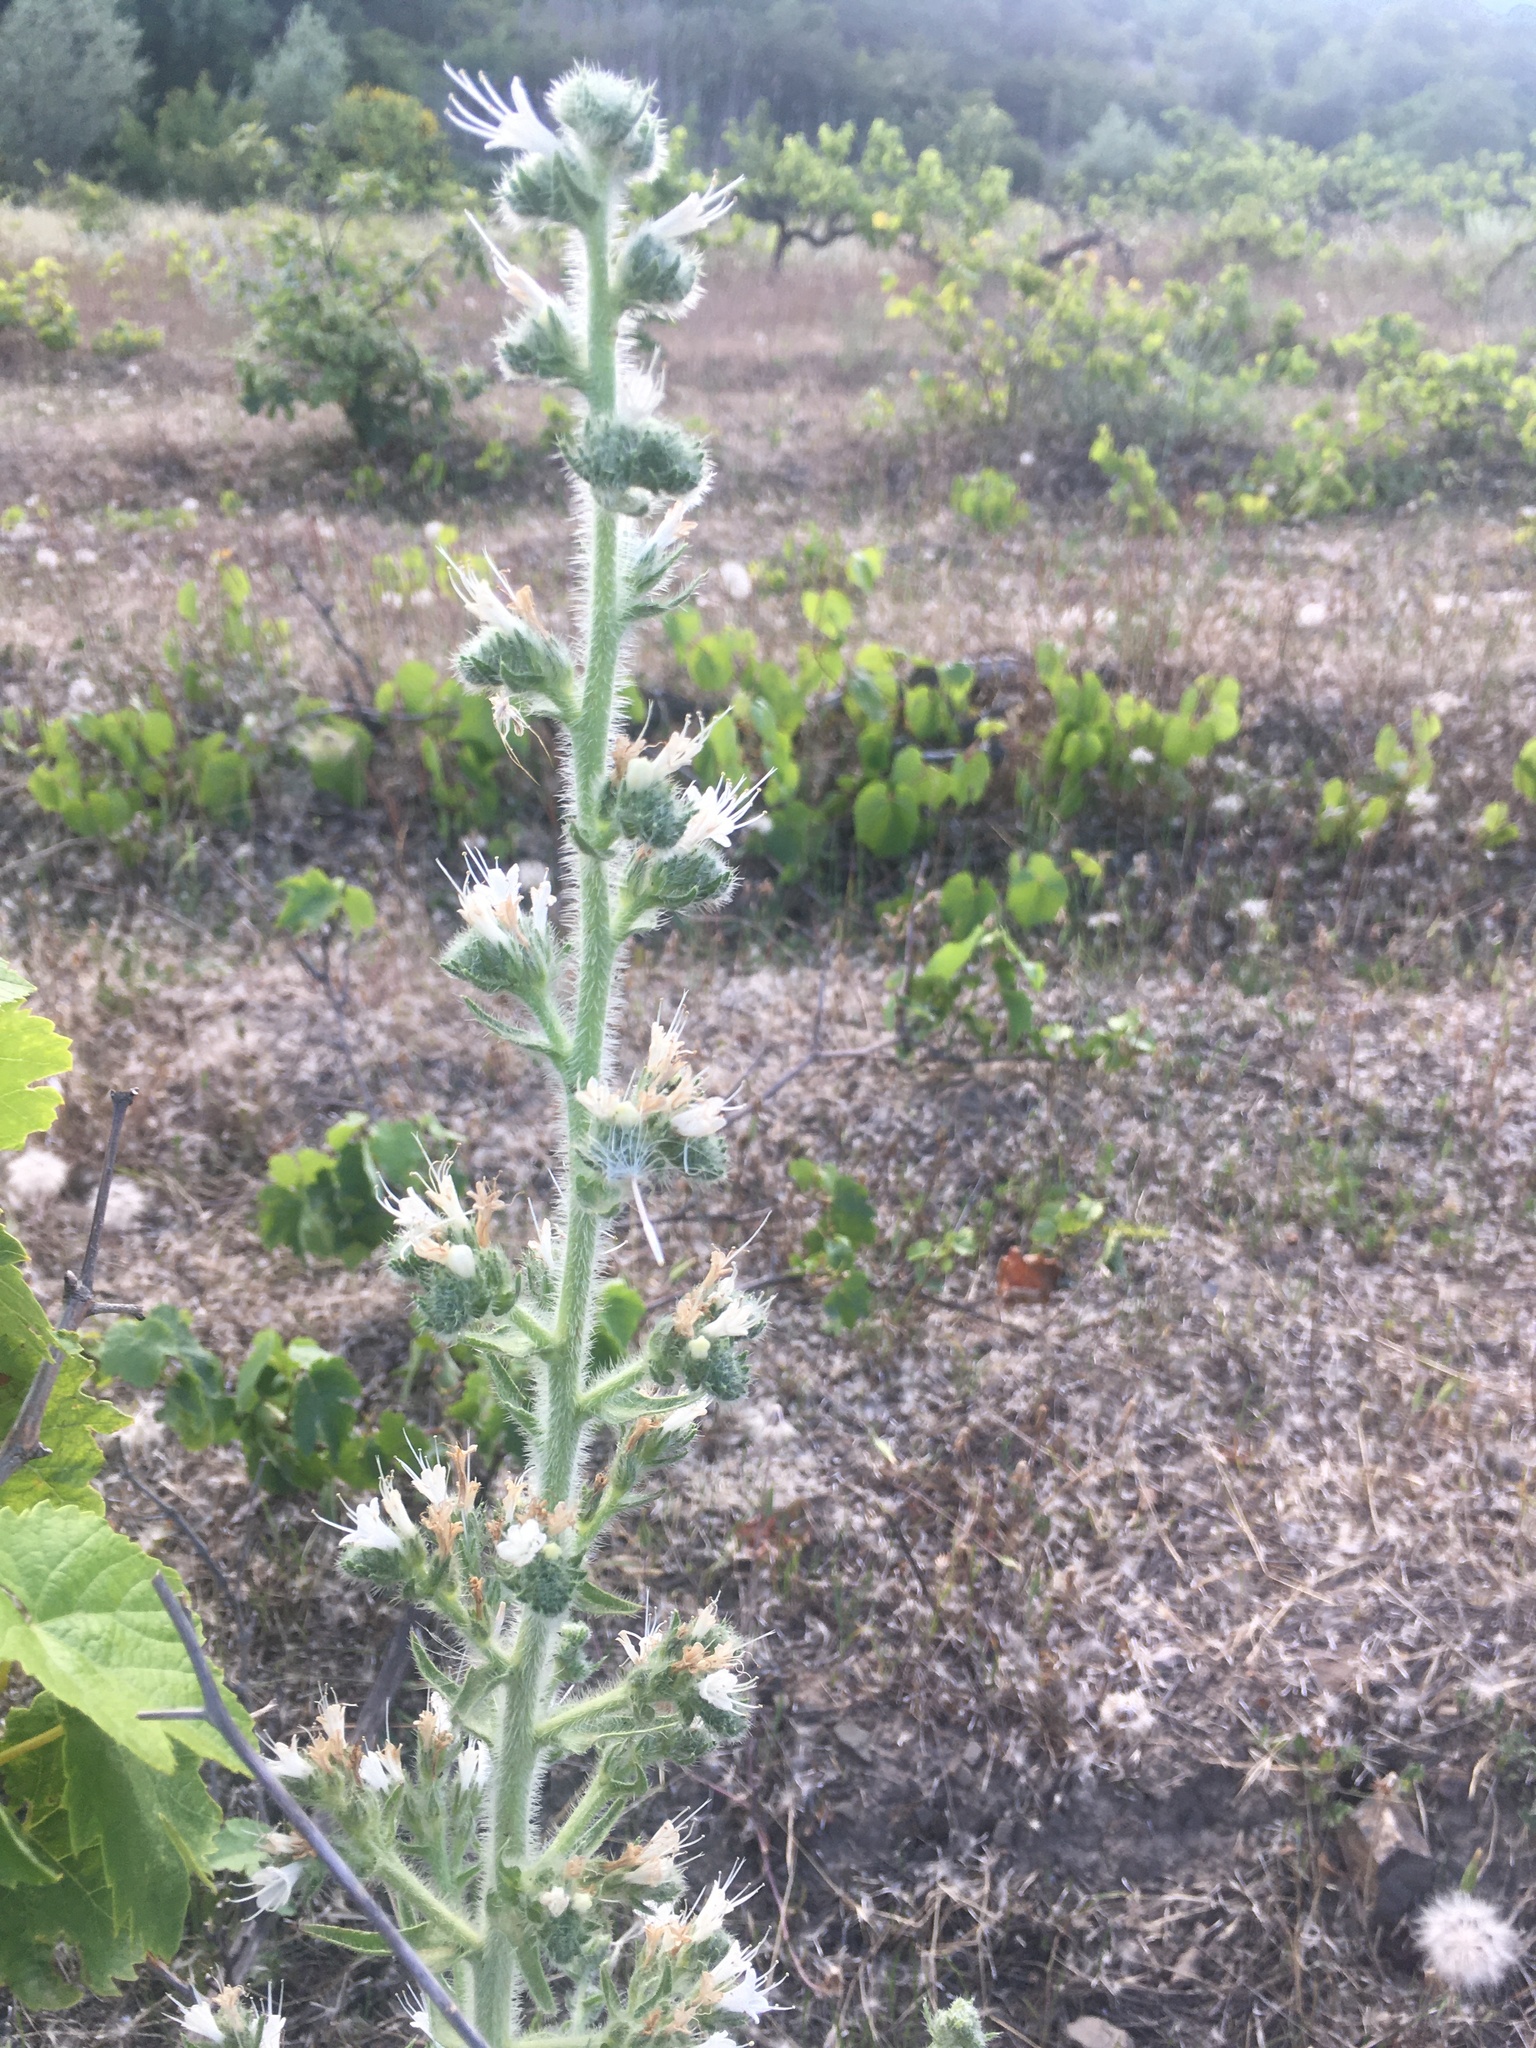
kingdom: Plantae
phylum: Tracheophyta
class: Magnoliopsida
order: Boraginales
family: Boraginaceae
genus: Echium
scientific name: Echium italicum
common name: Italian viper's bugloss
